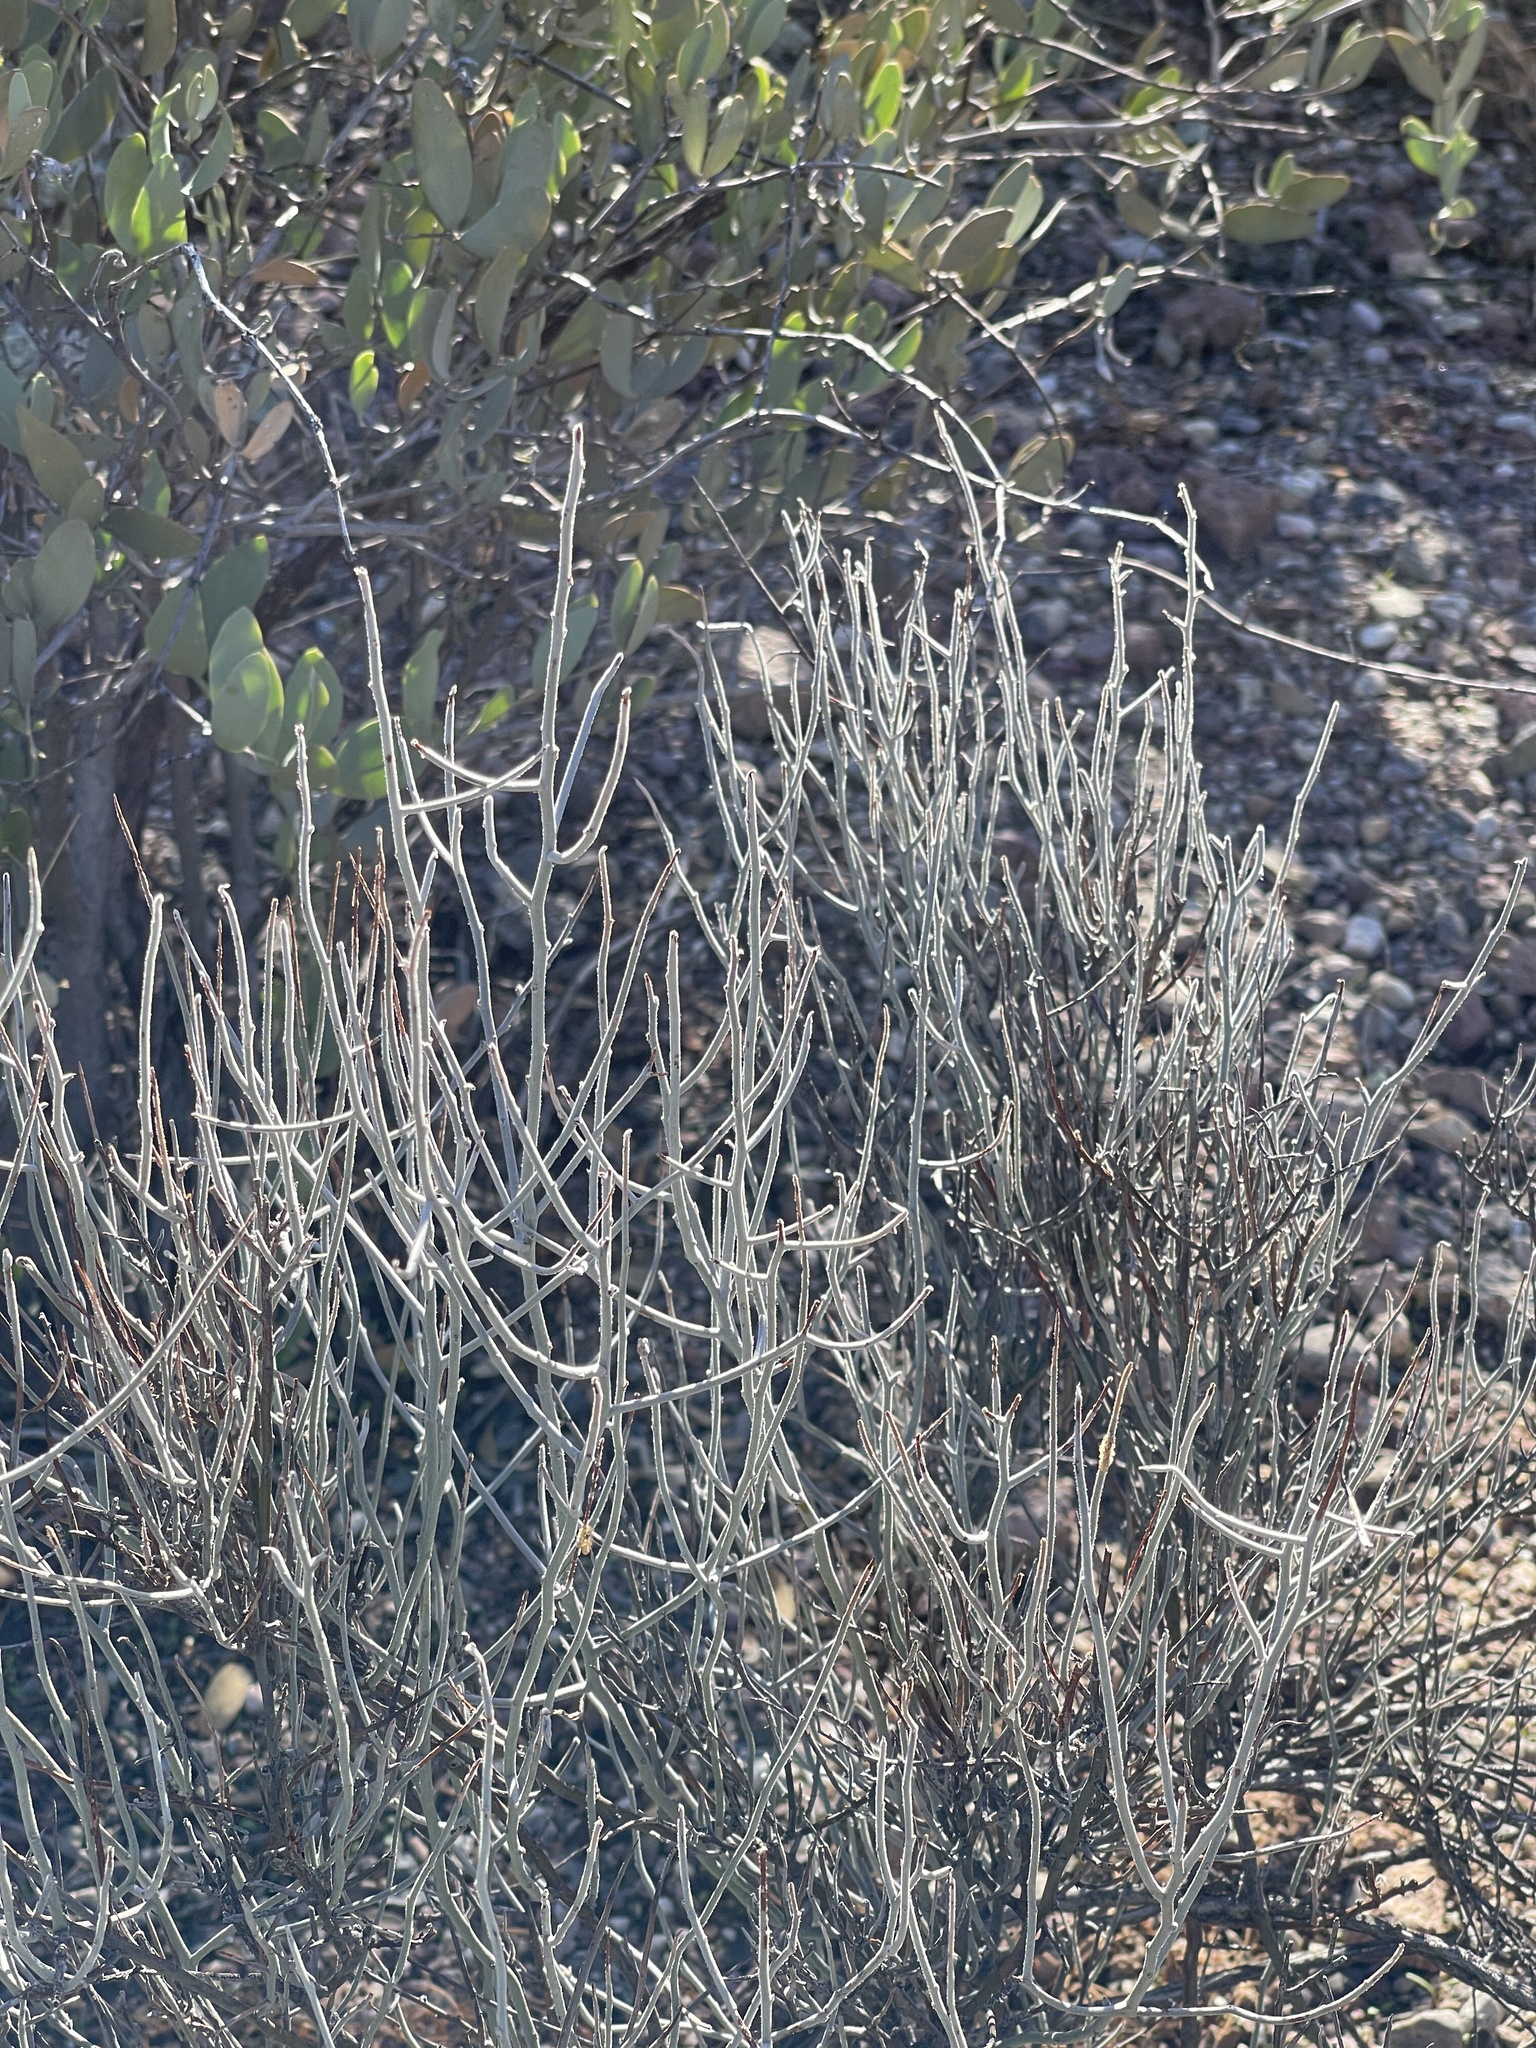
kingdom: Plantae
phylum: Tracheophyta
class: Magnoliopsida
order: Caryophyllales
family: Polygonaceae
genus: Eriogonum
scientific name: Eriogonum wrightii
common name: Bastard-sage
